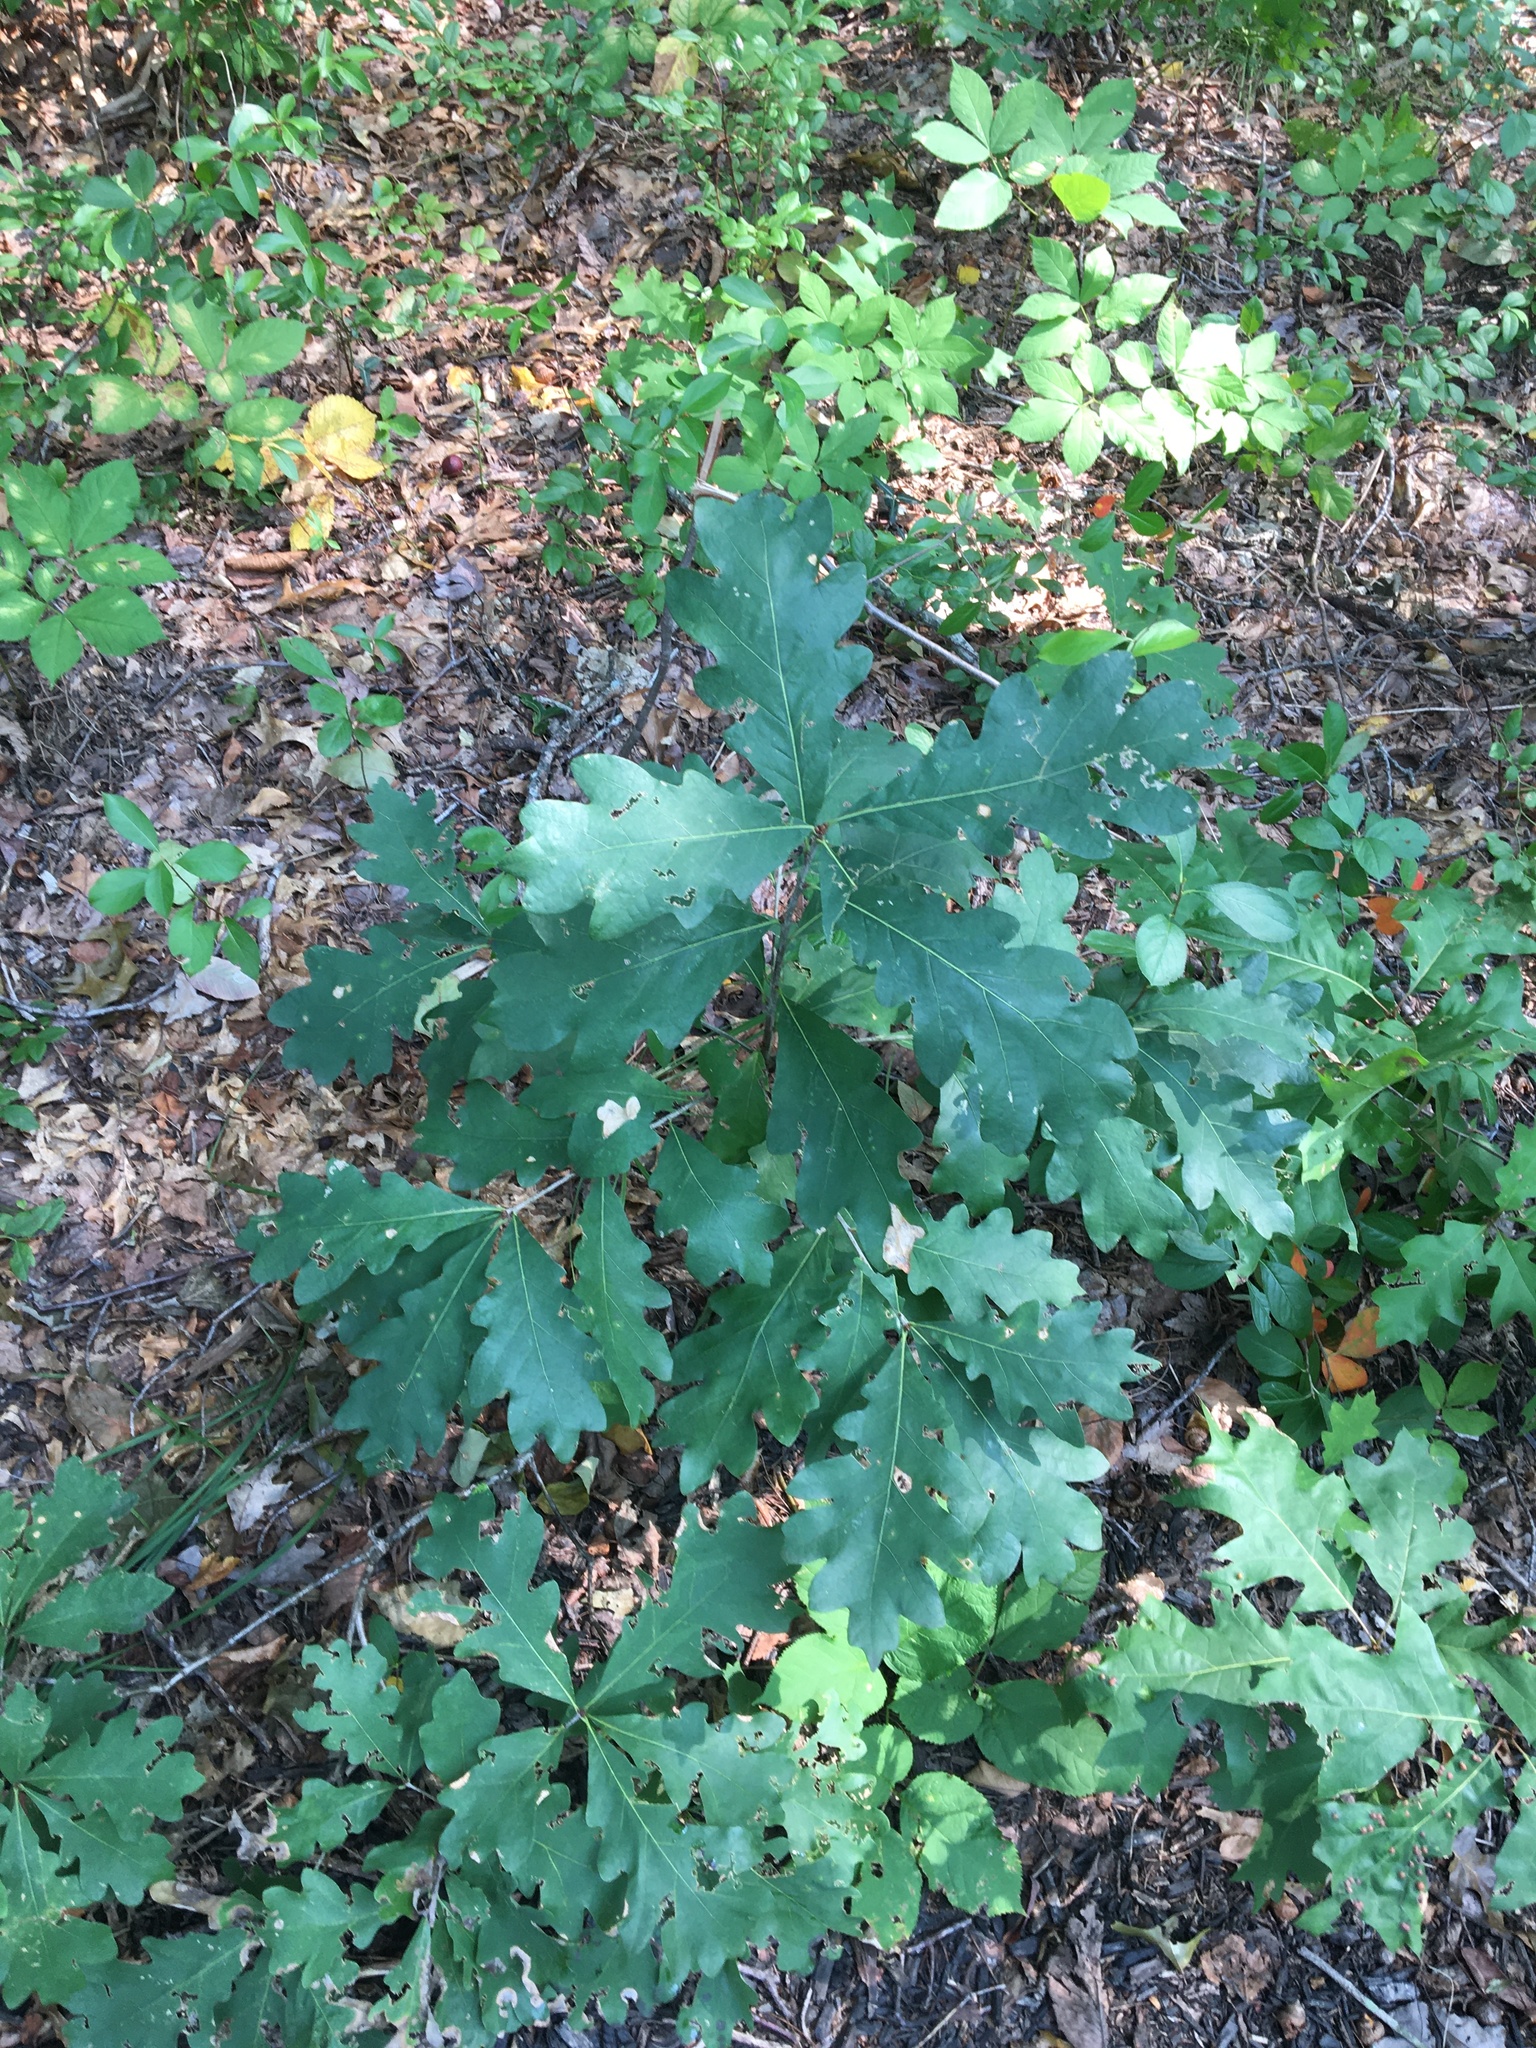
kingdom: Plantae
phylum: Tracheophyta
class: Magnoliopsida
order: Fagales
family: Fagaceae
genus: Quercus
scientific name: Quercus alba
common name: White oak
